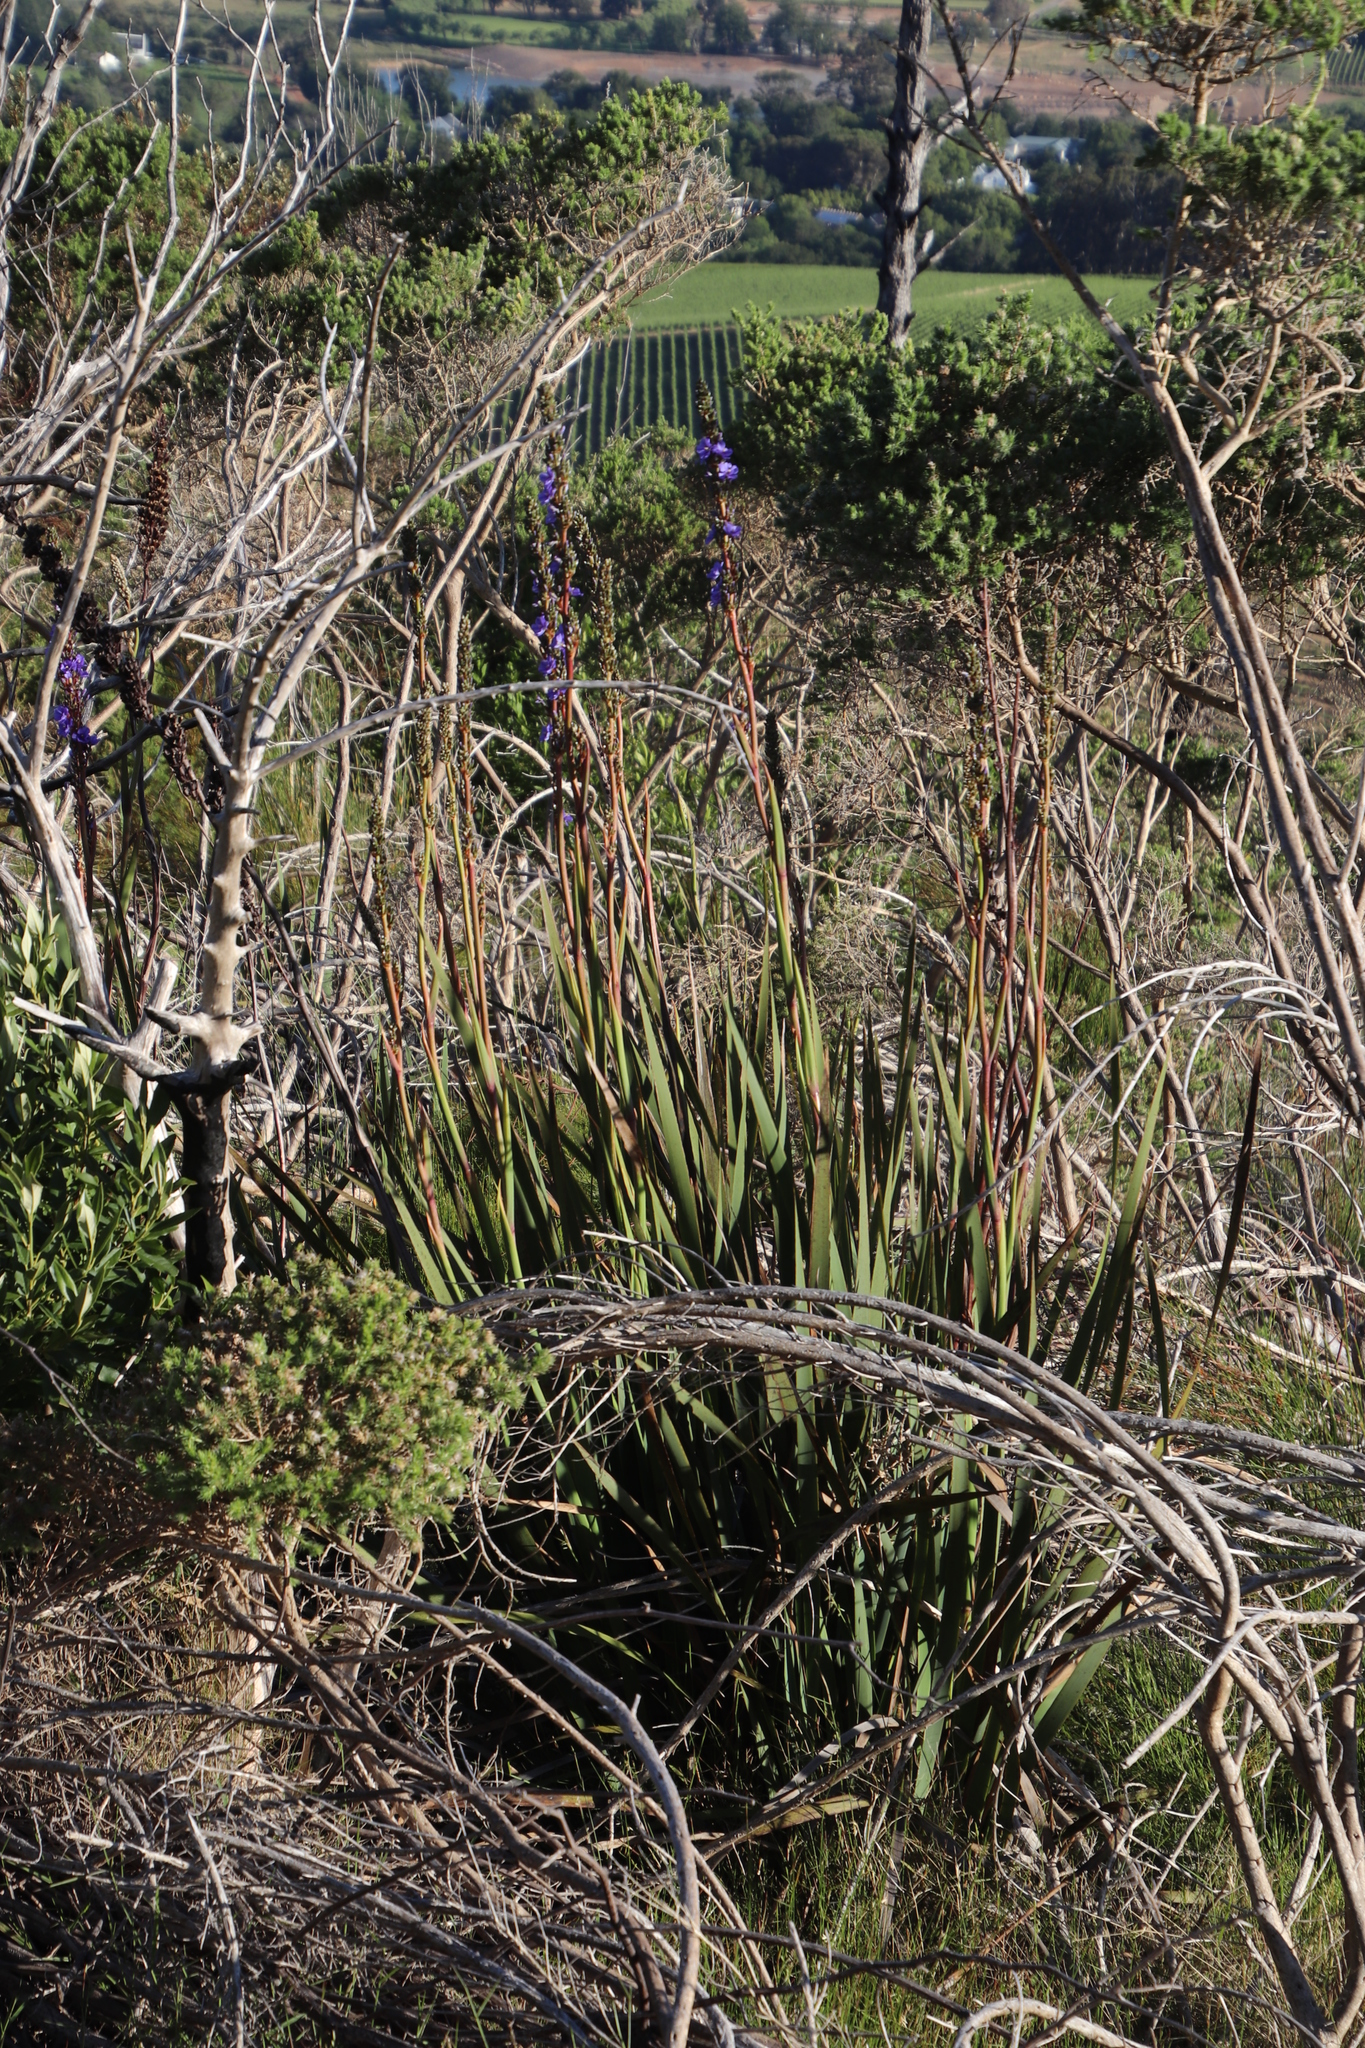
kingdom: Plantae
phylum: Tracheophyta
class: Liliopsida
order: Asparagales
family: Iridaceae
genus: Aristea
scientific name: Aristea capitata
